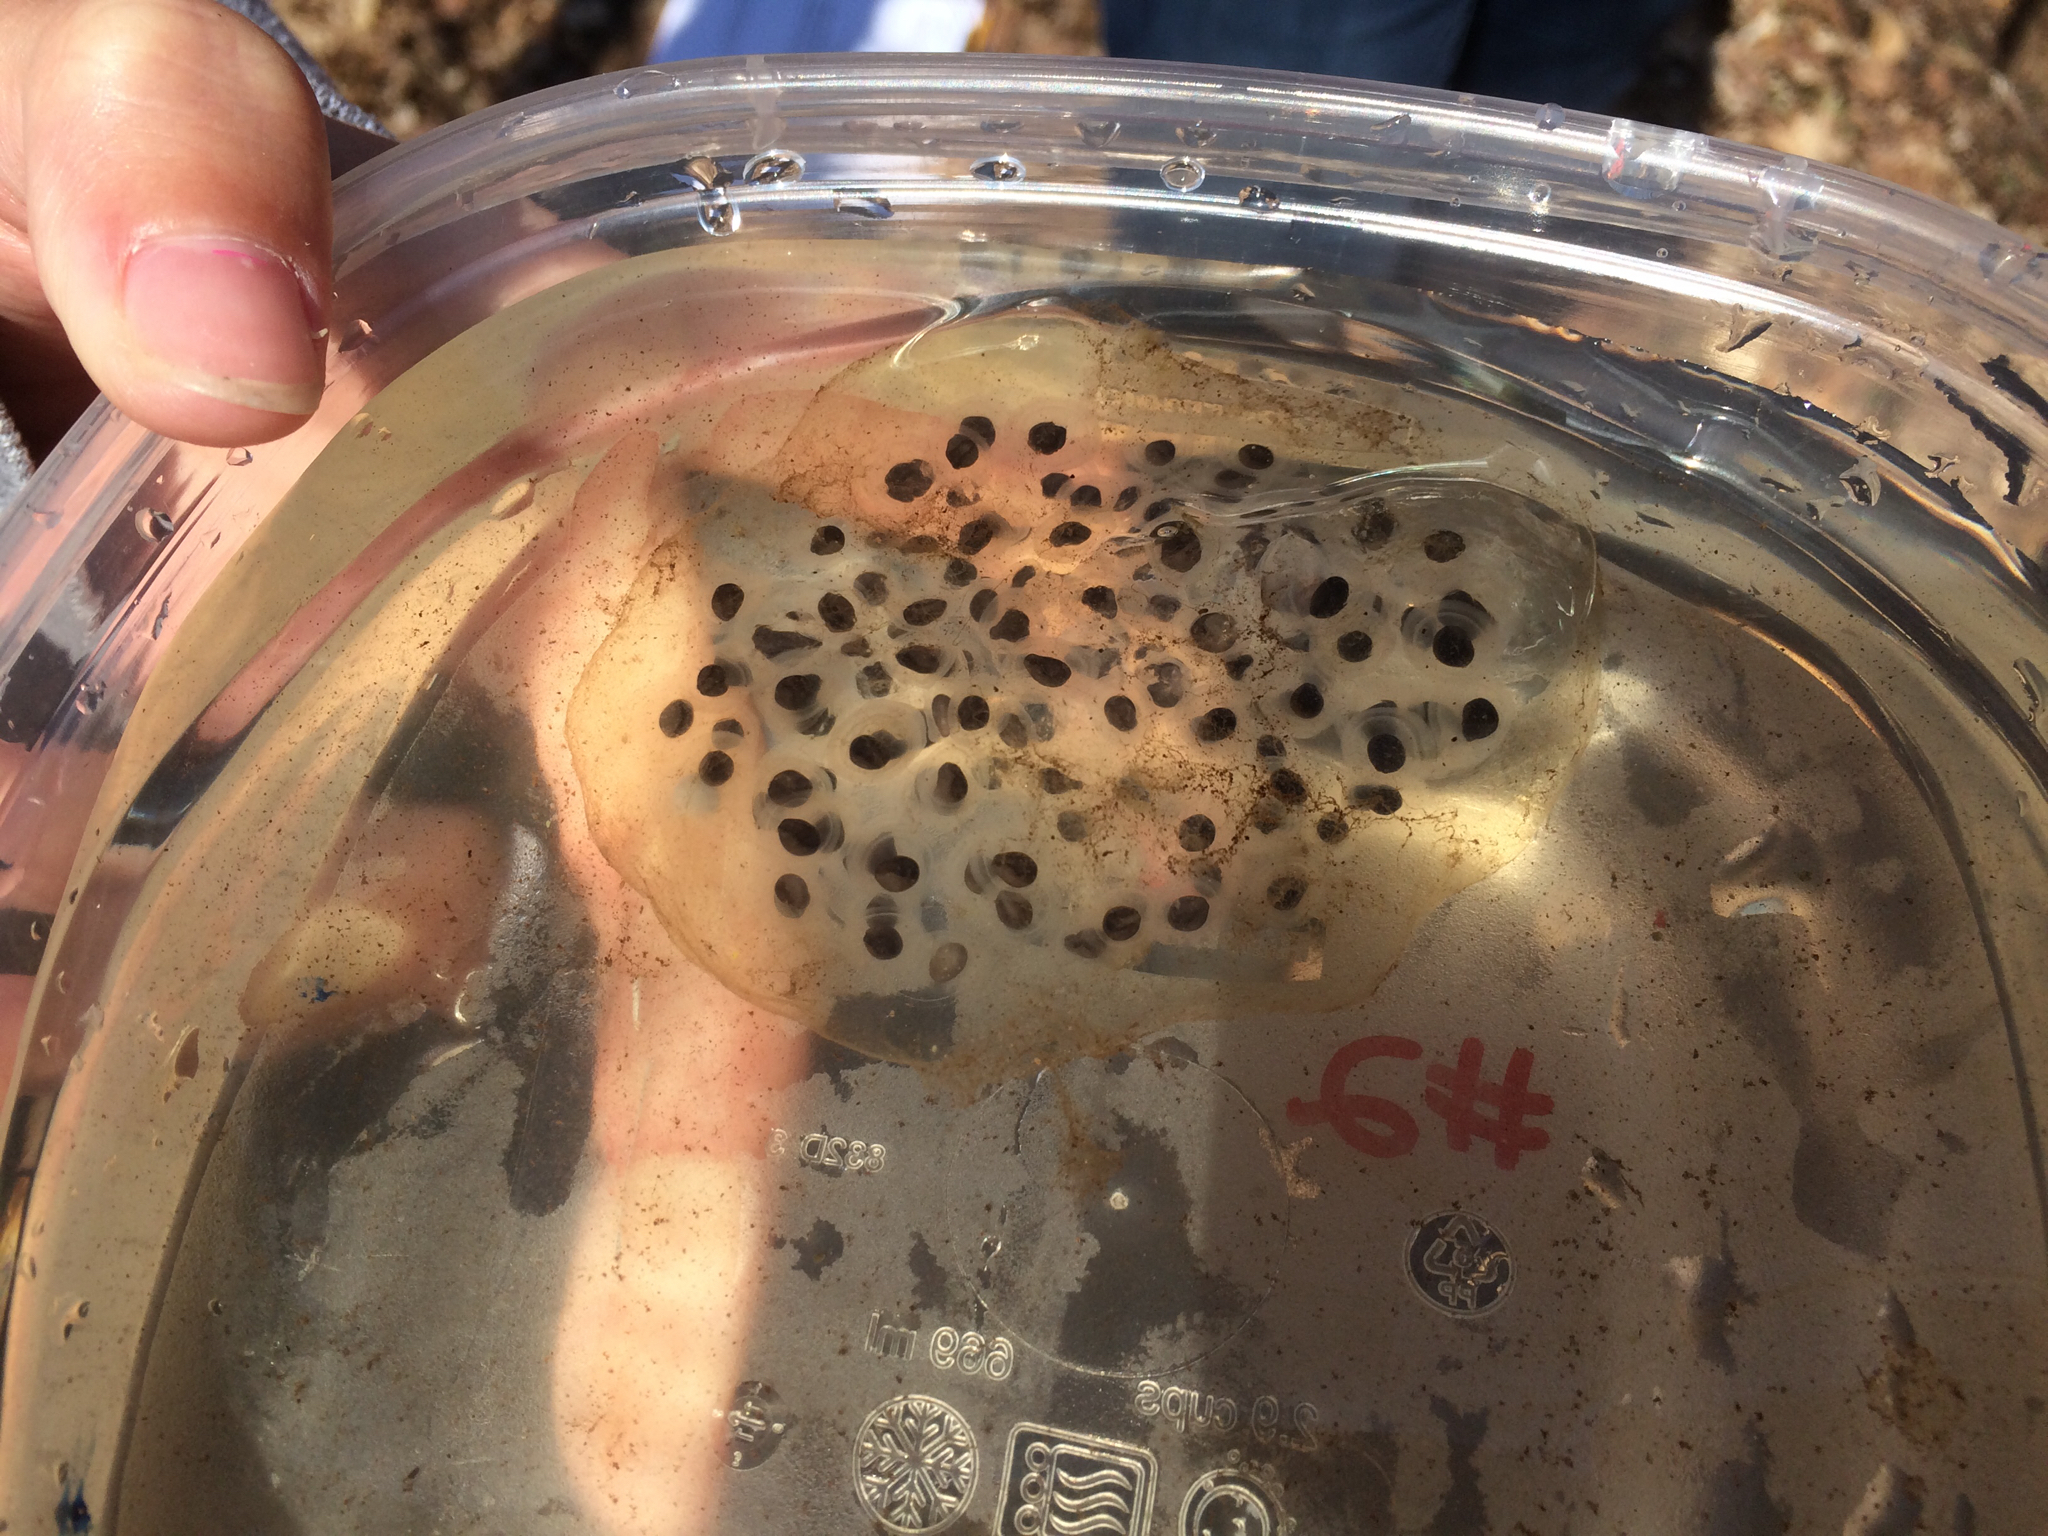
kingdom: Animalia
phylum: Chordata
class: Amphibia
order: Caudata
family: Ambystomatidae
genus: Ambystoma
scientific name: Ambystoma maculatum
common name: Spotted salamander
